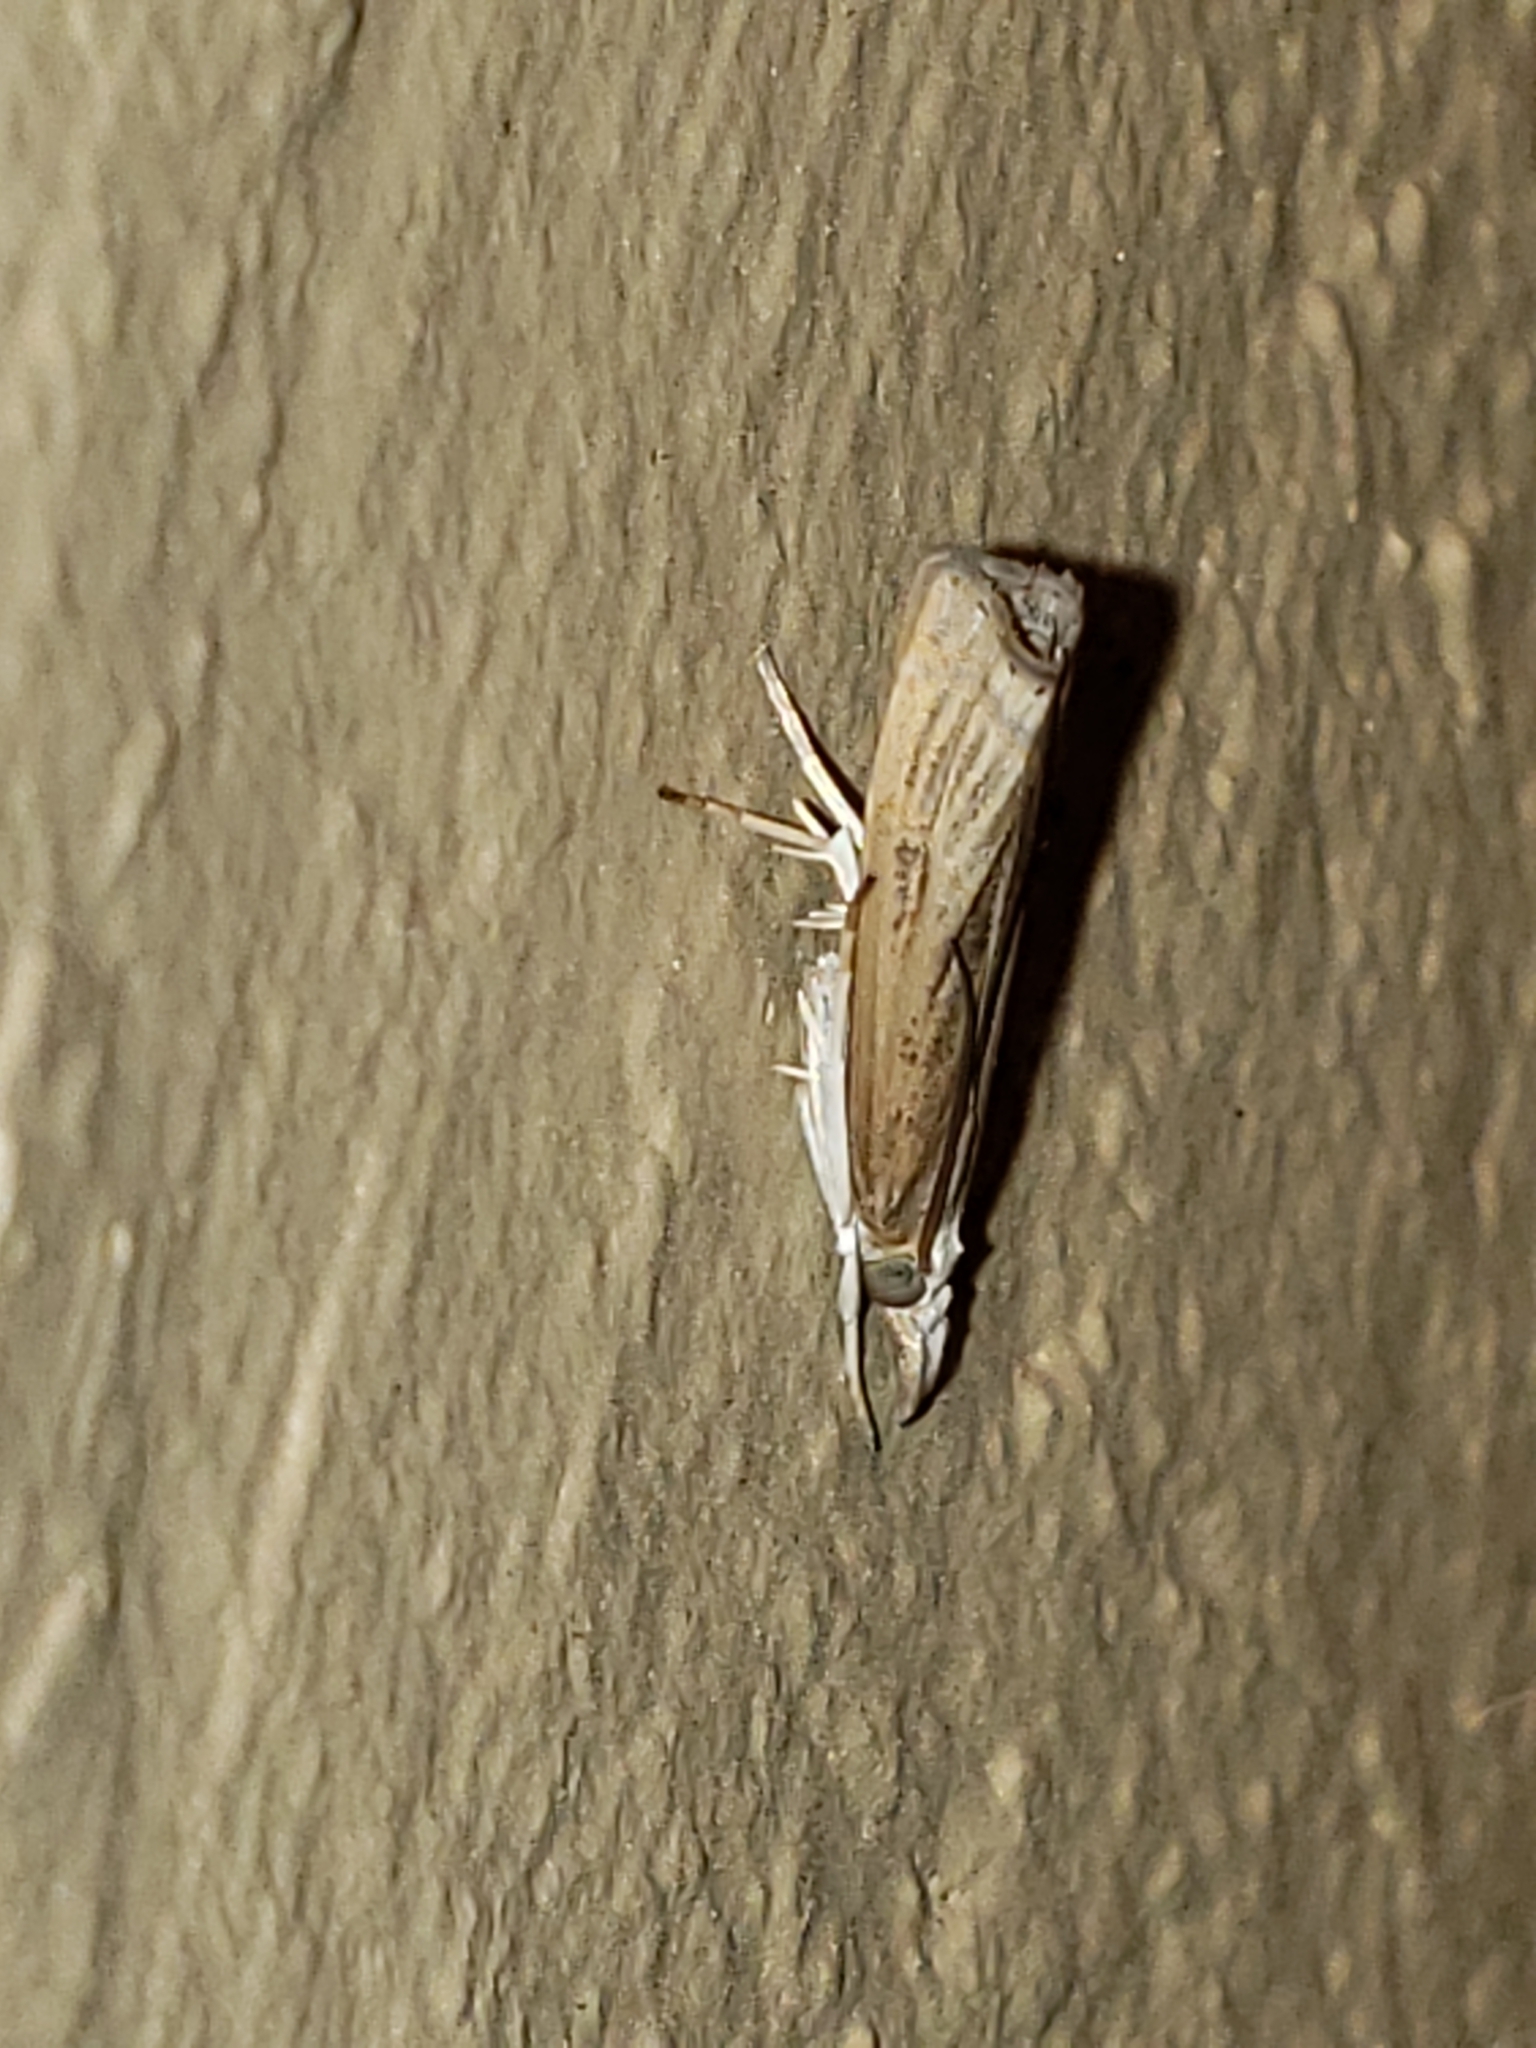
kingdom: Animalia
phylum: Arthropoda
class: Insecta
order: Lepidoptera
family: Crambidae
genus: Parapediasia
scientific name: Parapediasia teterellus
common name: Bluegrass webworm moth
